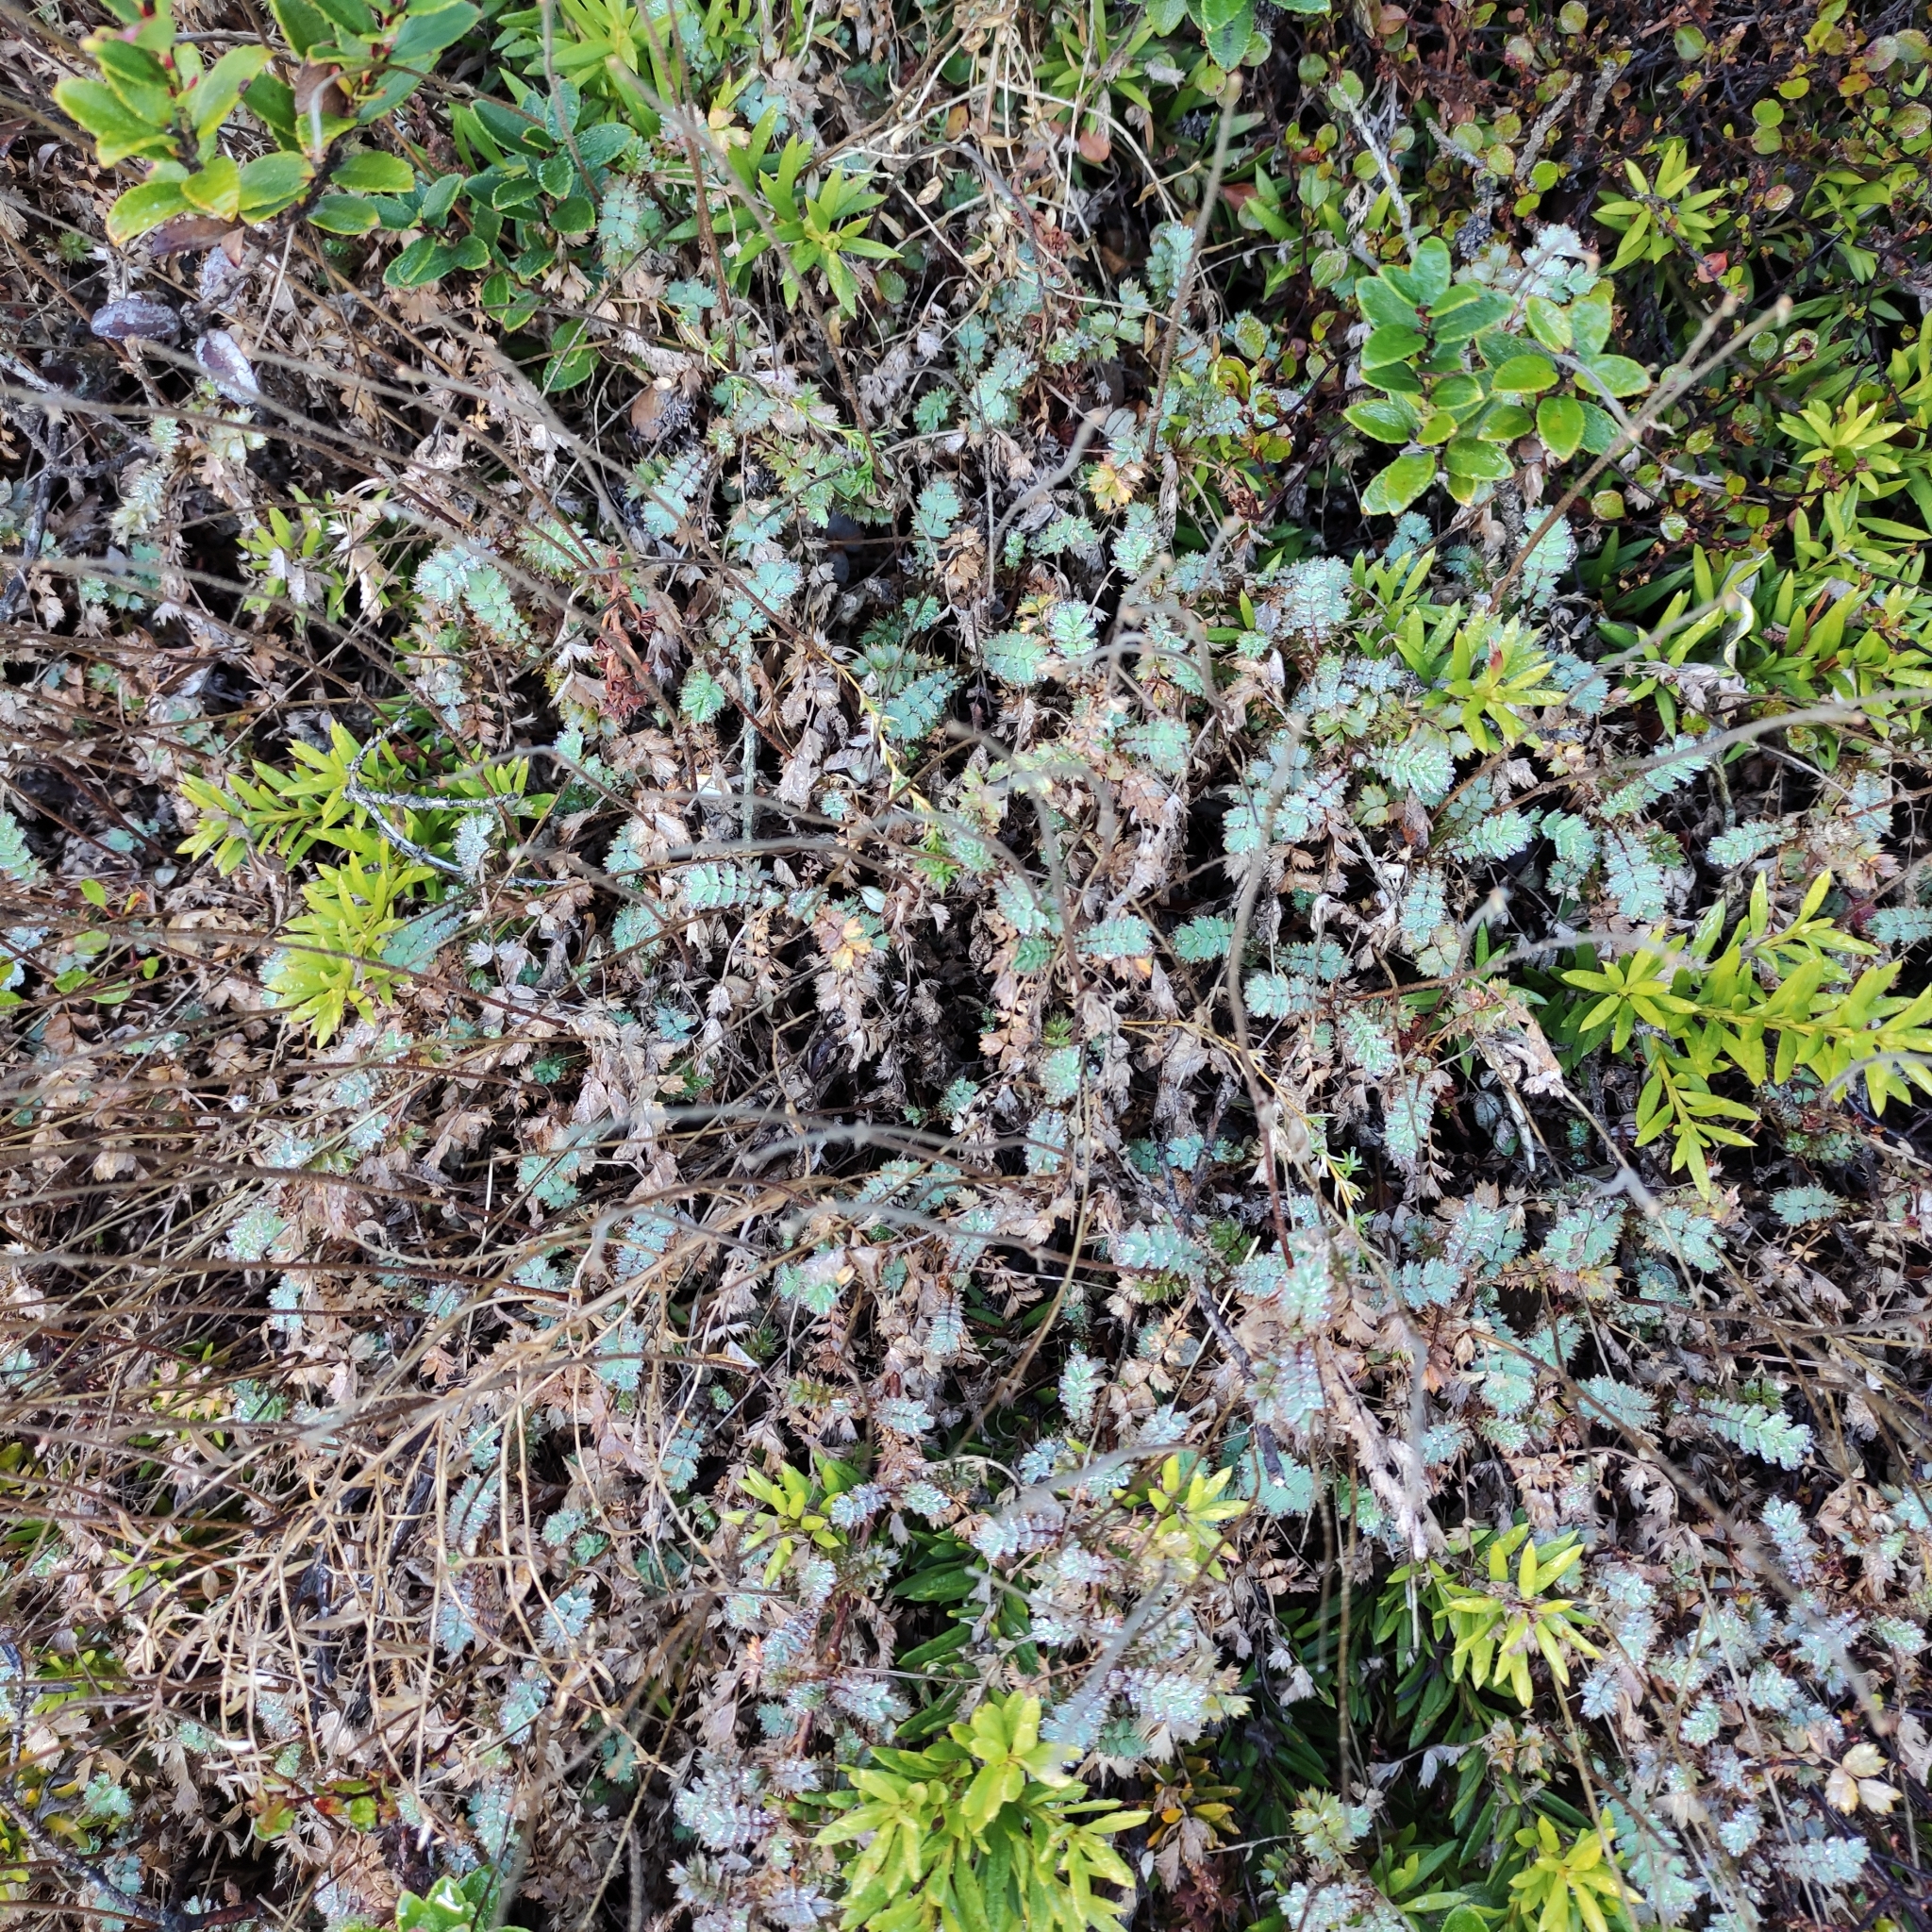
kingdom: Plantae
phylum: Tracheophyta
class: Magnoliopsida
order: Rosales
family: Rosaceae
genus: Acaena
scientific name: Acaena caesiiglauca
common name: Glaucous pirri-pirri-bur
